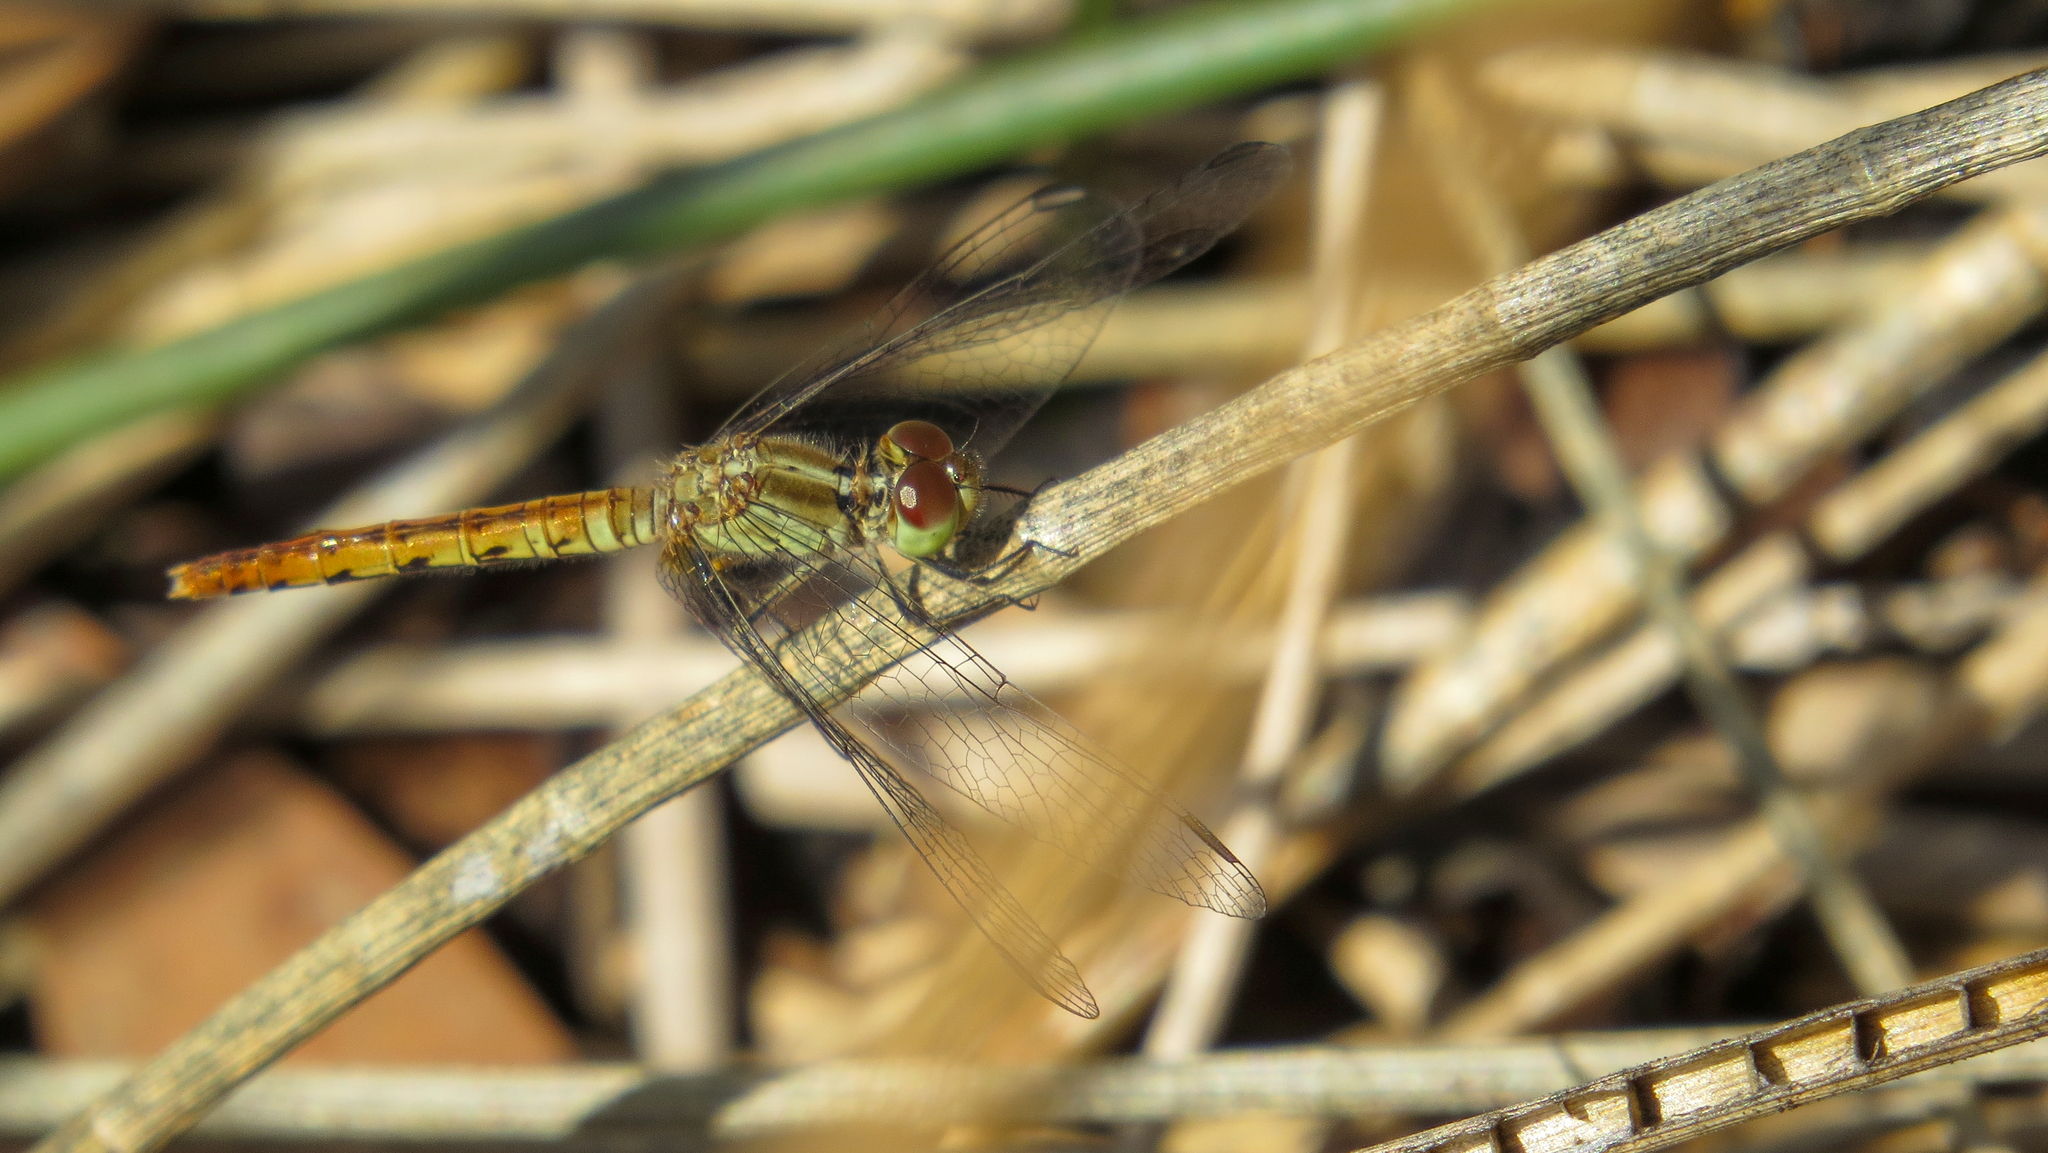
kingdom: Animalia
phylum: Arthropoda
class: Insecta
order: Odonata
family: Libellulidae
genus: Nannodiplax
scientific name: Nannodiplax rubra
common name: Pygmy percher
